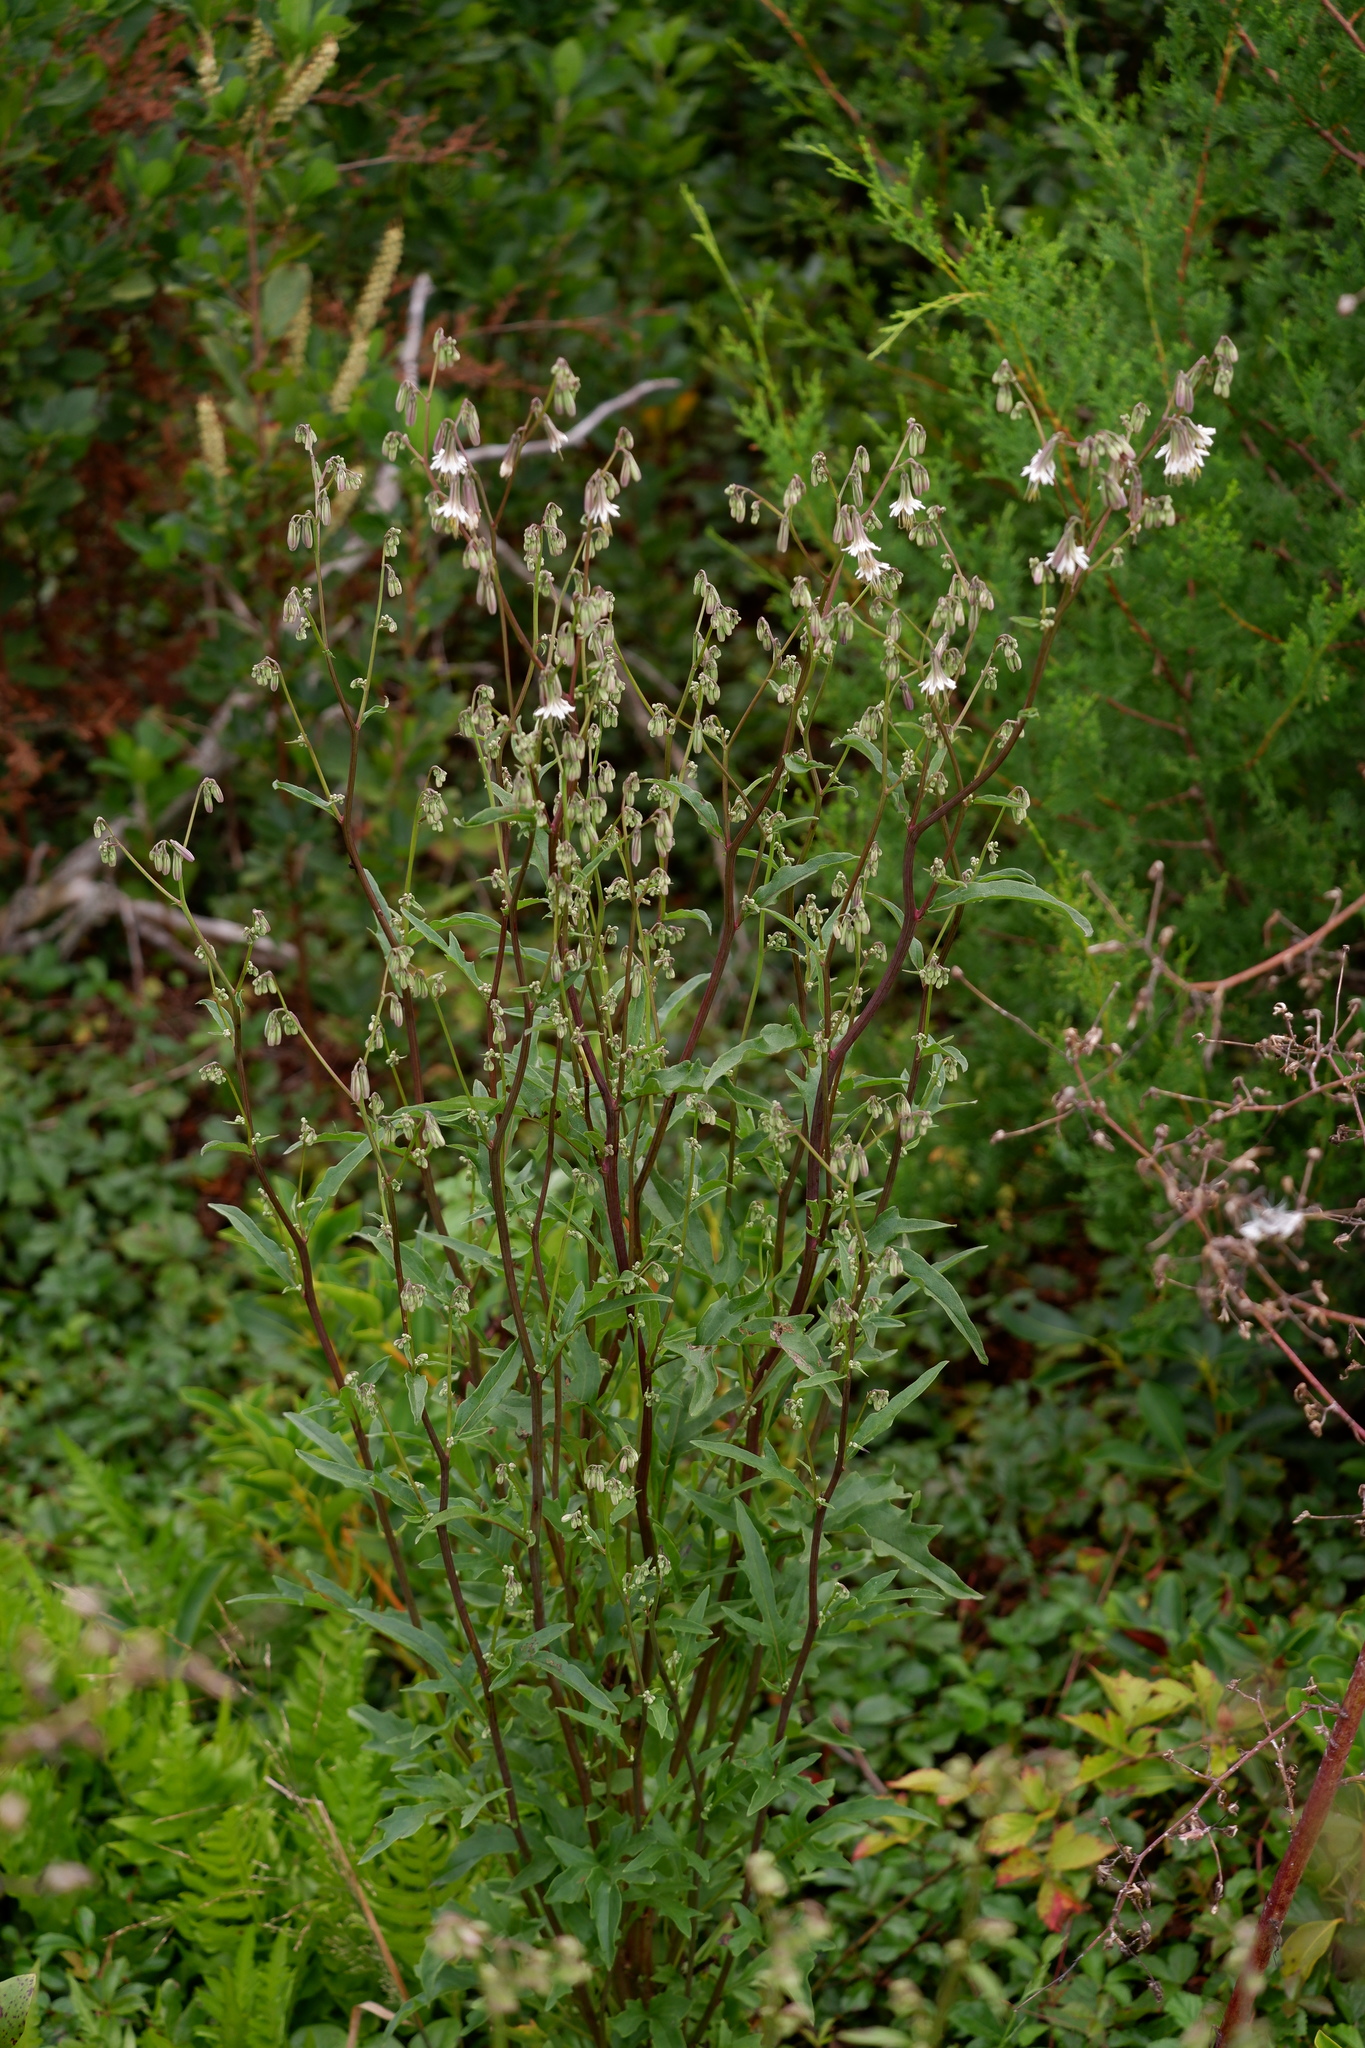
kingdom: Plantae
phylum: Tracheophyta
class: Magnoliopsida
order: Asterales
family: Asteraceae
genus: Nabalus
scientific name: Nabalus albus
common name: White rattlesnakeroot
